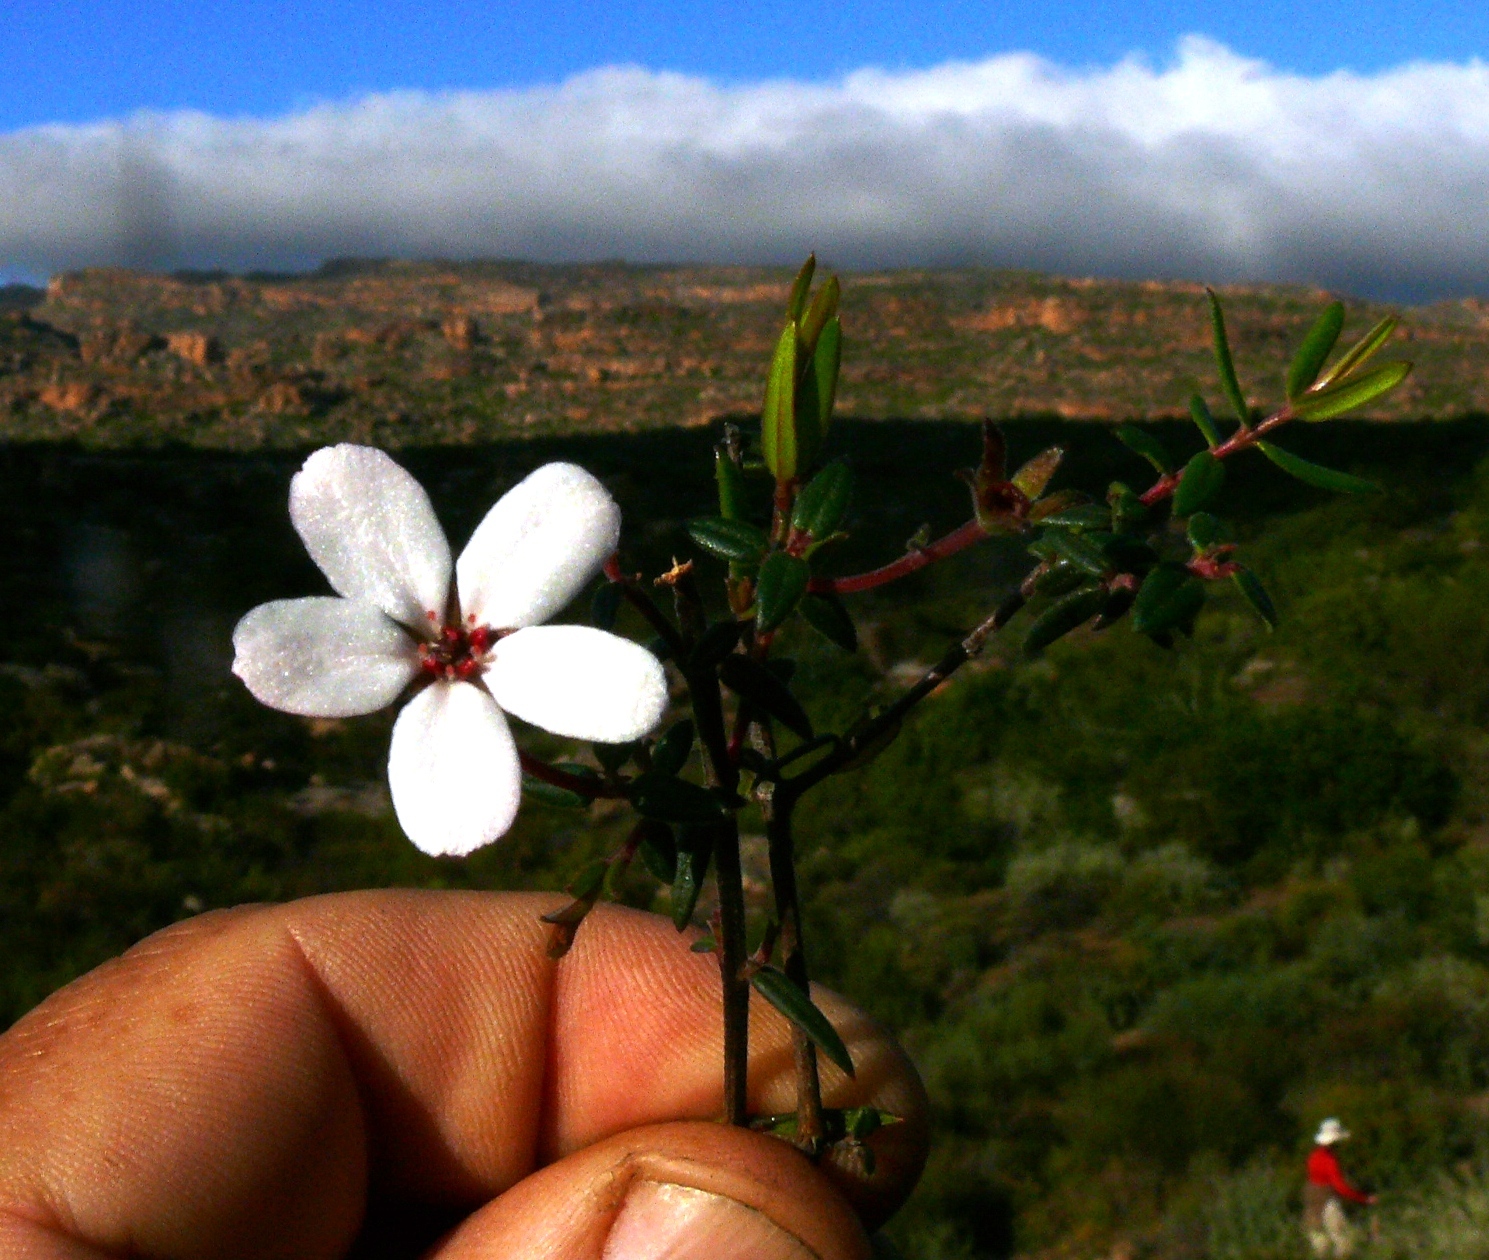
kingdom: Plantae
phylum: Tracheophyta
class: Magnoliopsida
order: Sapindales
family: Rutaceae
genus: Adenandra
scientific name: Adenandra marginata
